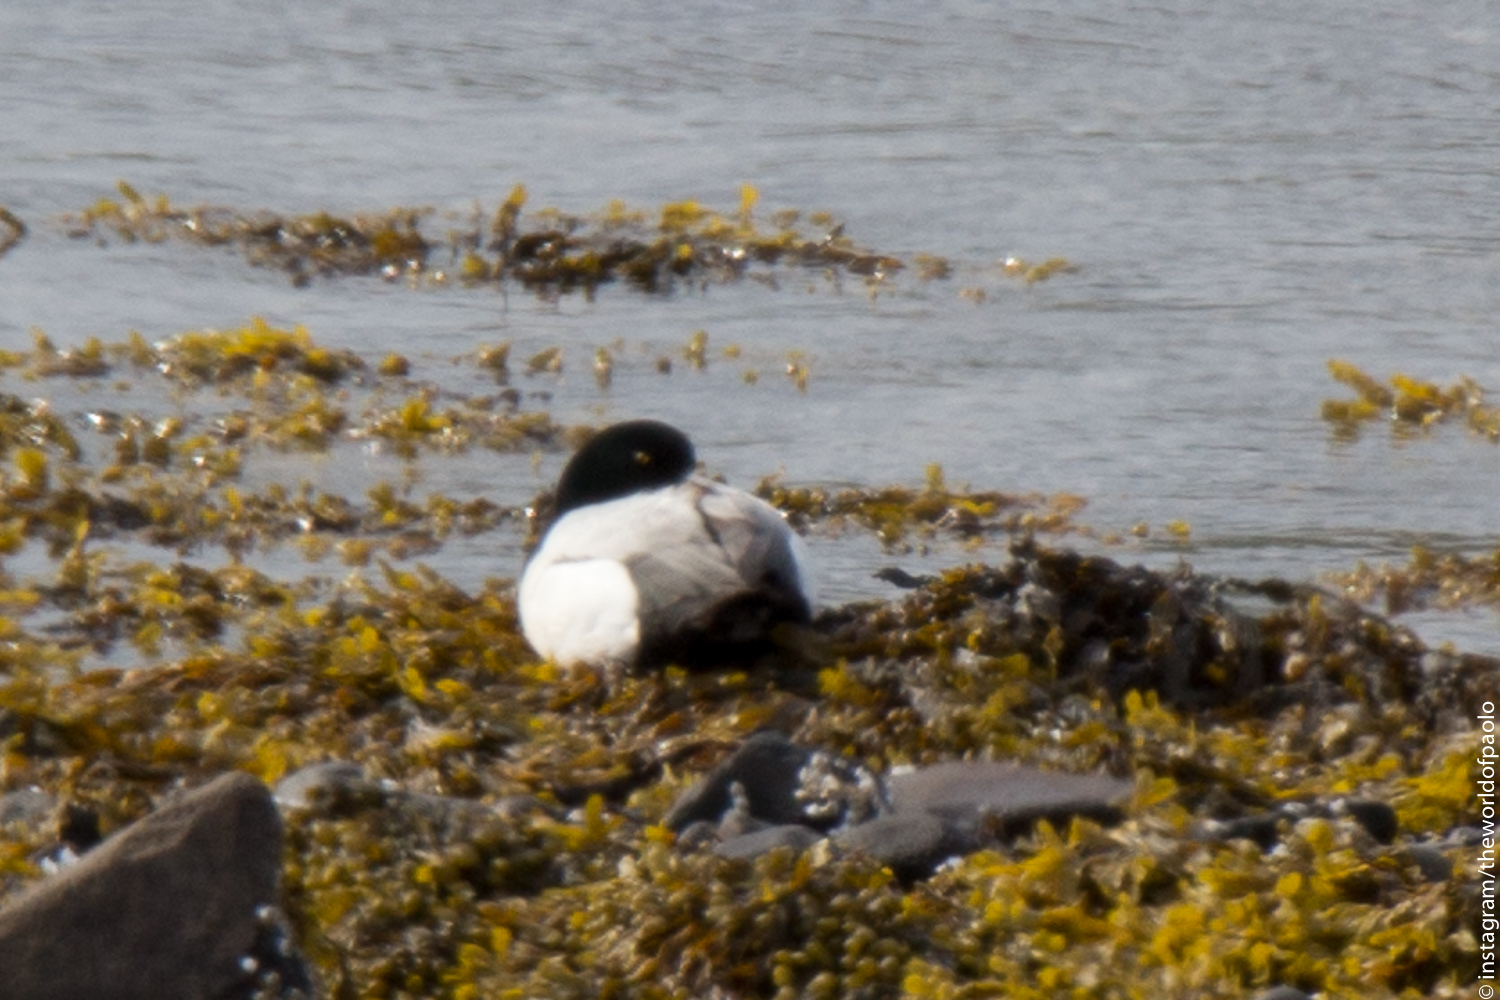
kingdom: Animalia
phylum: Chordata
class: Aves
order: Anseriformes
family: Anatidae
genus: Aythya
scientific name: Aythya marila
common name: Greater scaup
